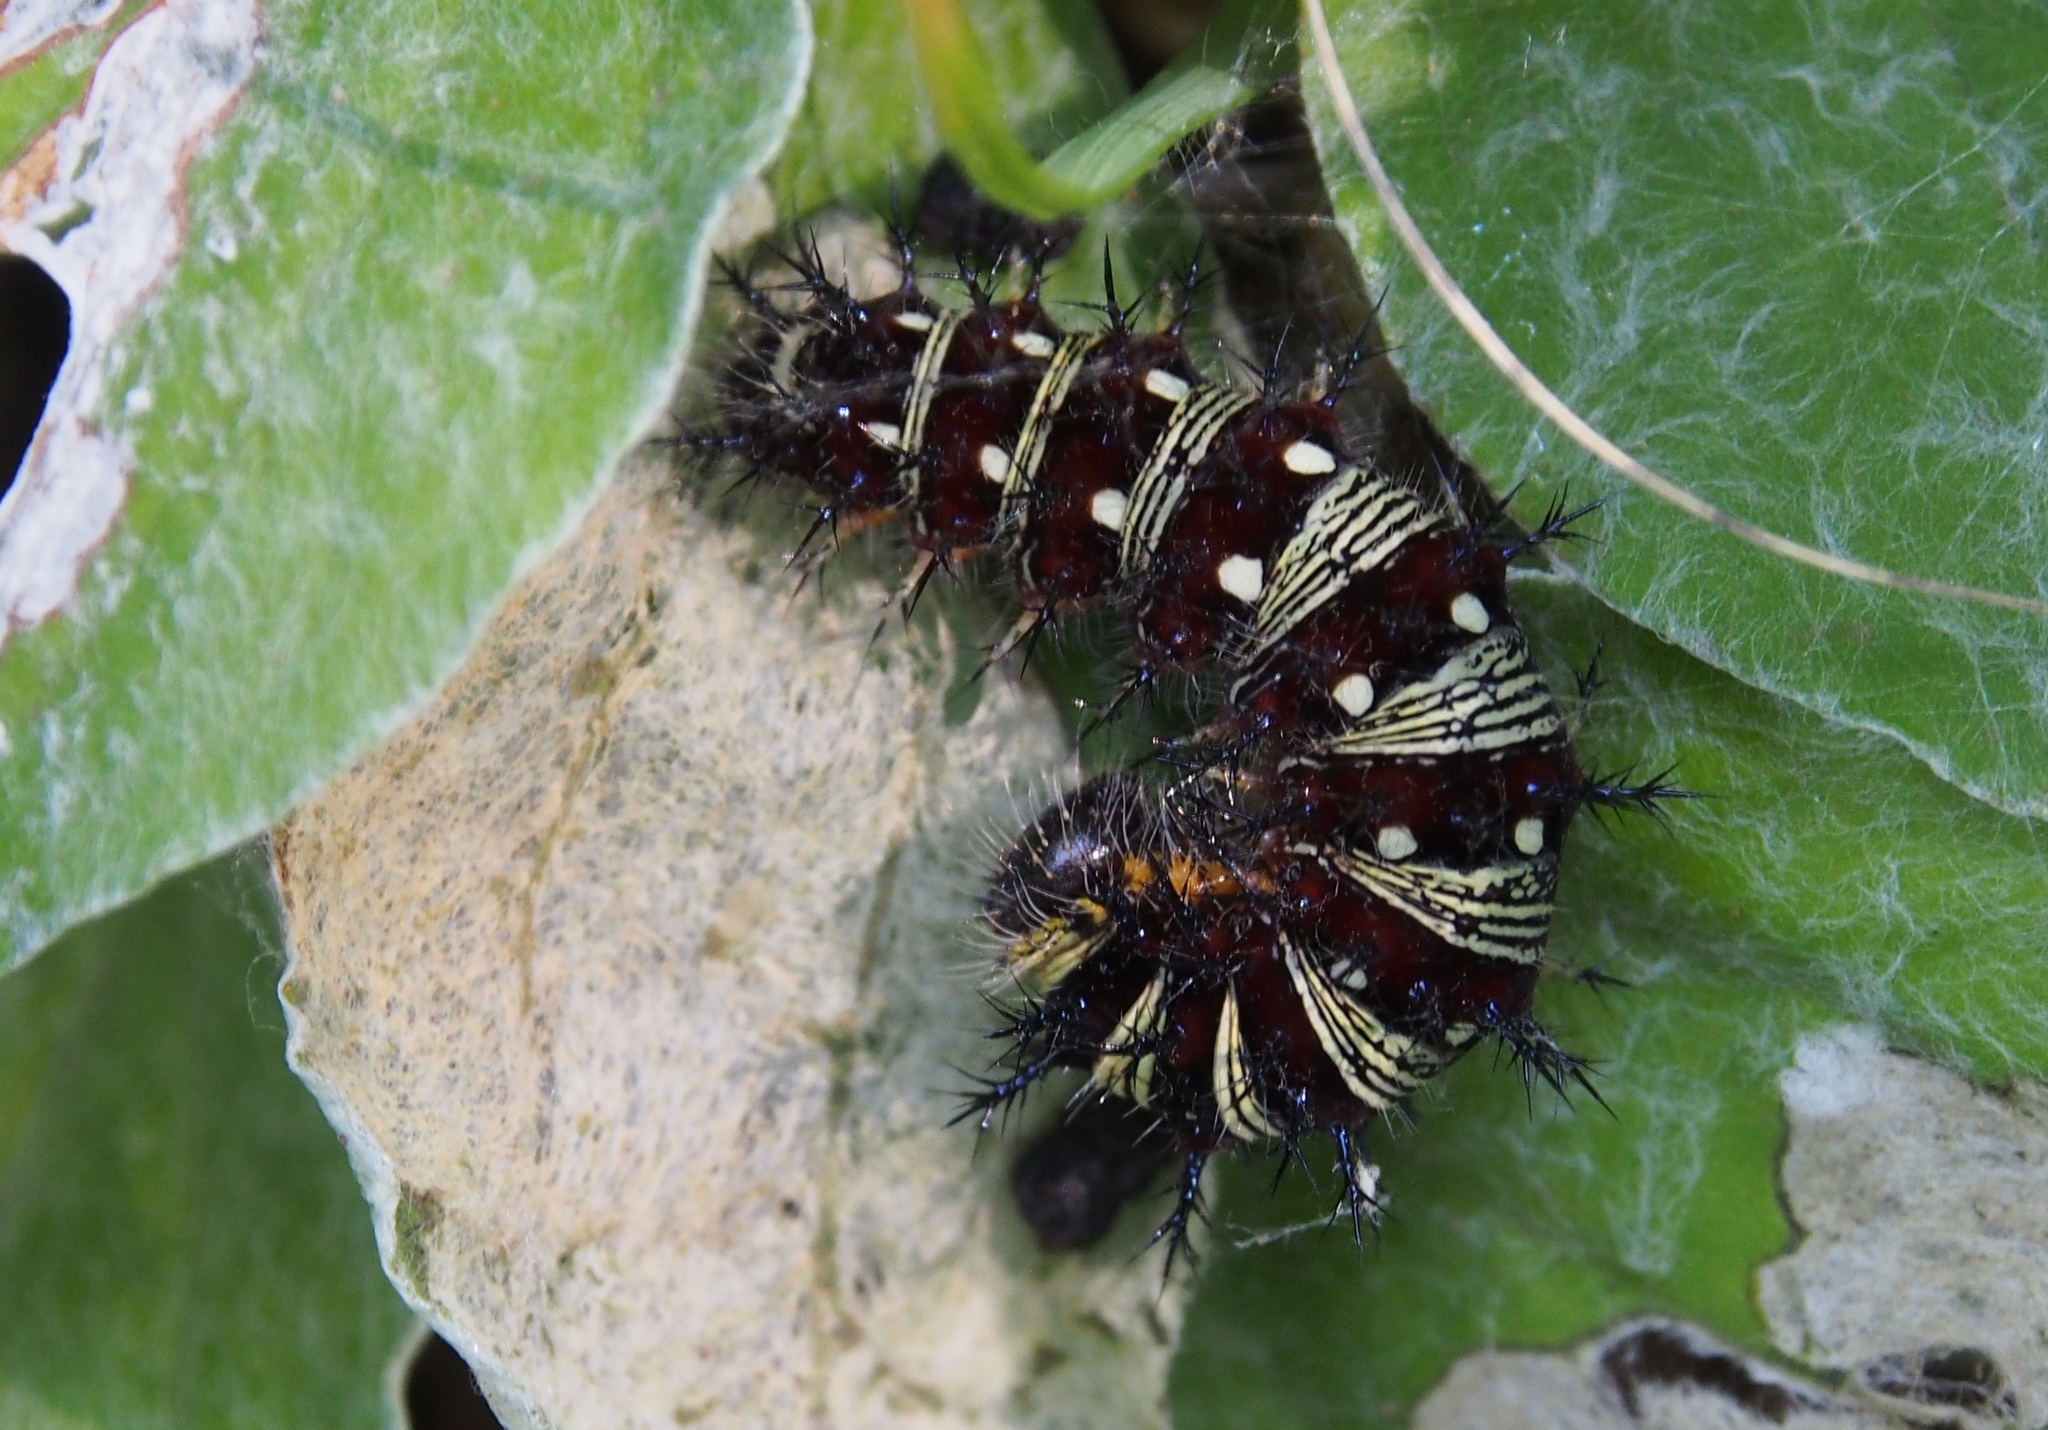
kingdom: Animalia
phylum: Arthropoda
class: Insecta
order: Lepidoptera
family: Nymphalidae
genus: Vanessa
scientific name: Vanessa virginiensis
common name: American lady
